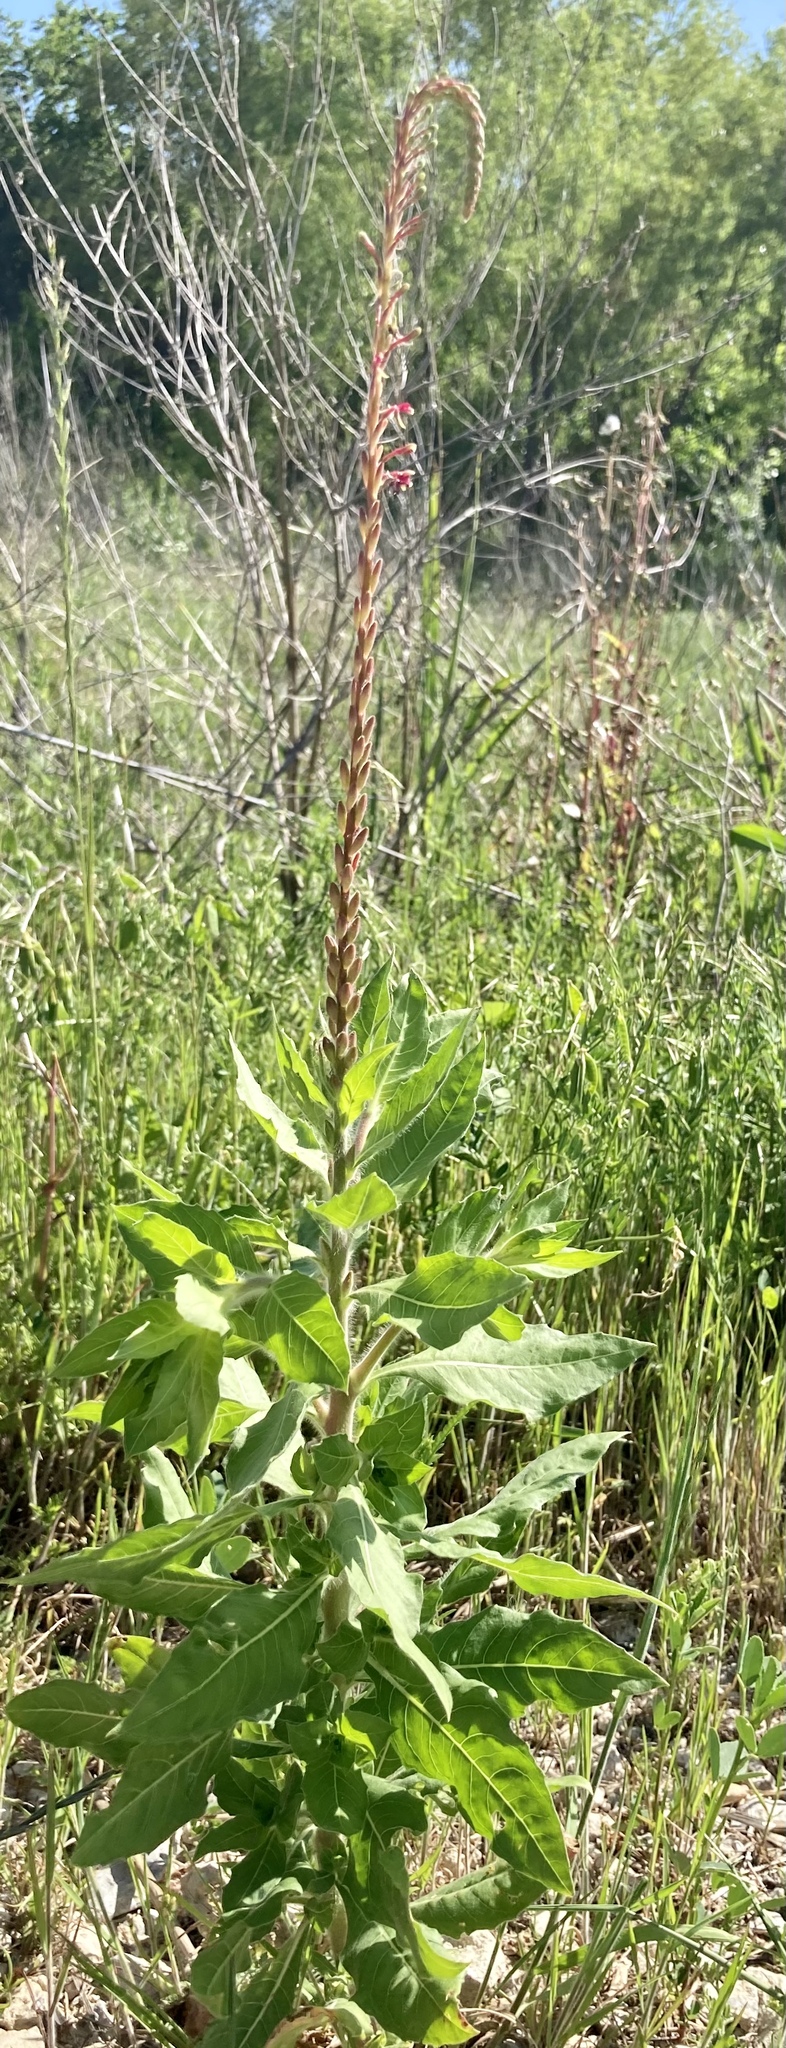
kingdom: Plantae
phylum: Tracheophyta
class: Magnoliopsida
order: Myrtales
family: Onagraceae
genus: Oenothera
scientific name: Oenothera curtiflora
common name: Velvetweed
